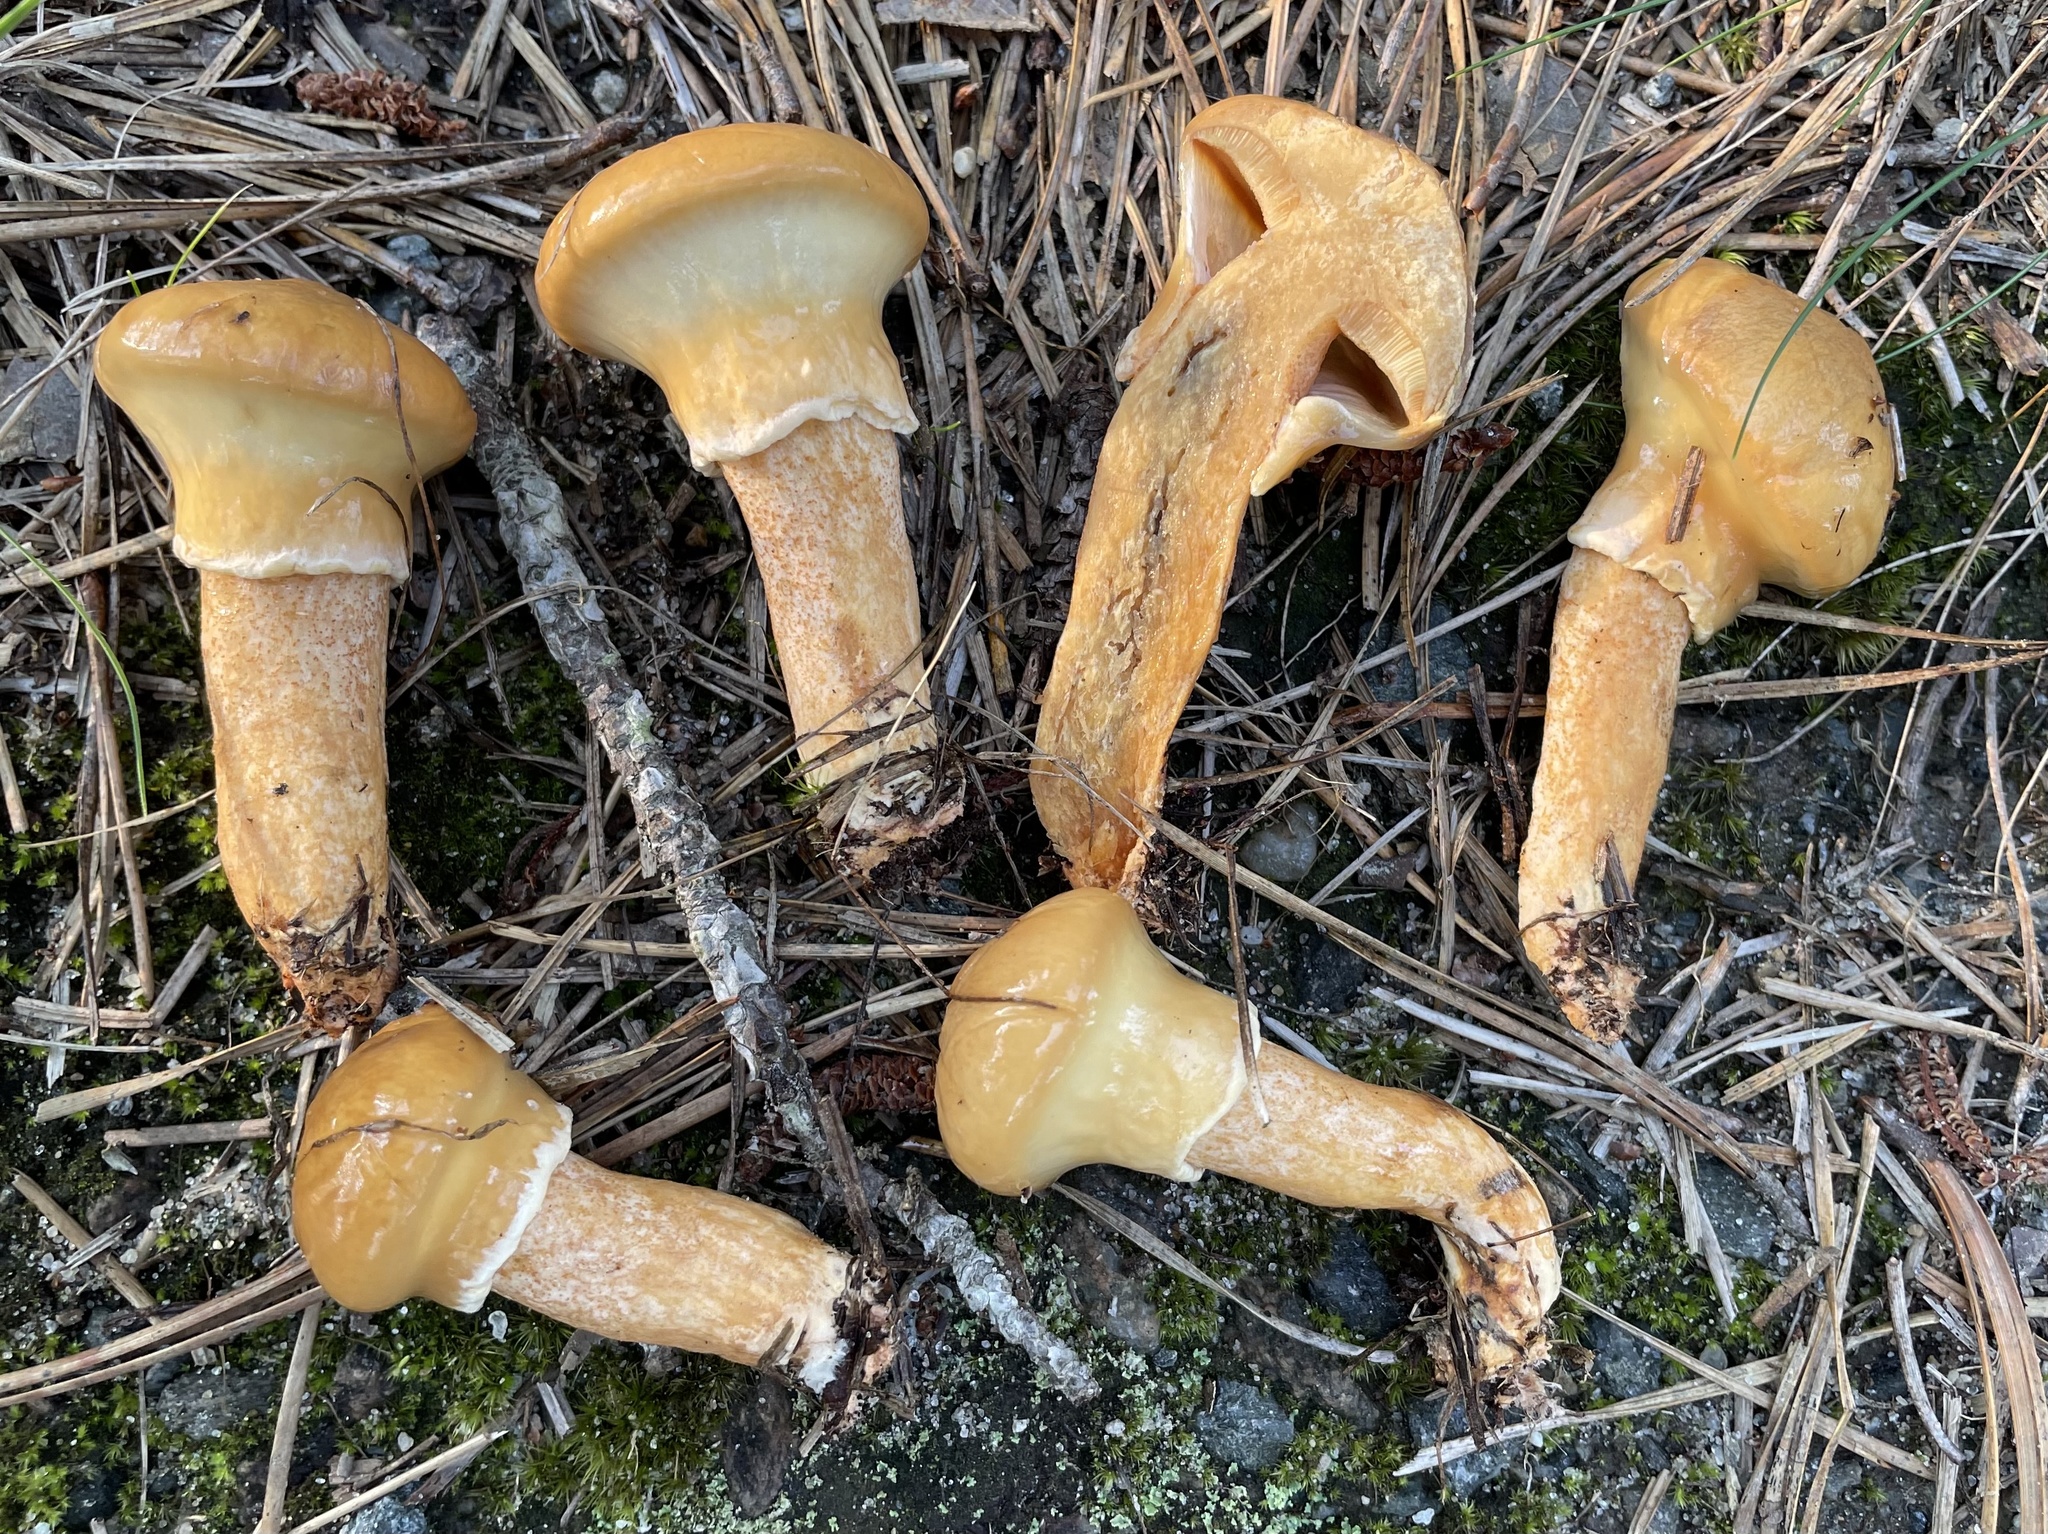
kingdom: Fungi
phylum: Basidiomycota
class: Agaricomycetes
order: Boletales
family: Suillaceae
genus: Suillus
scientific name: Suillus salmonicolor
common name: Slippery jill
